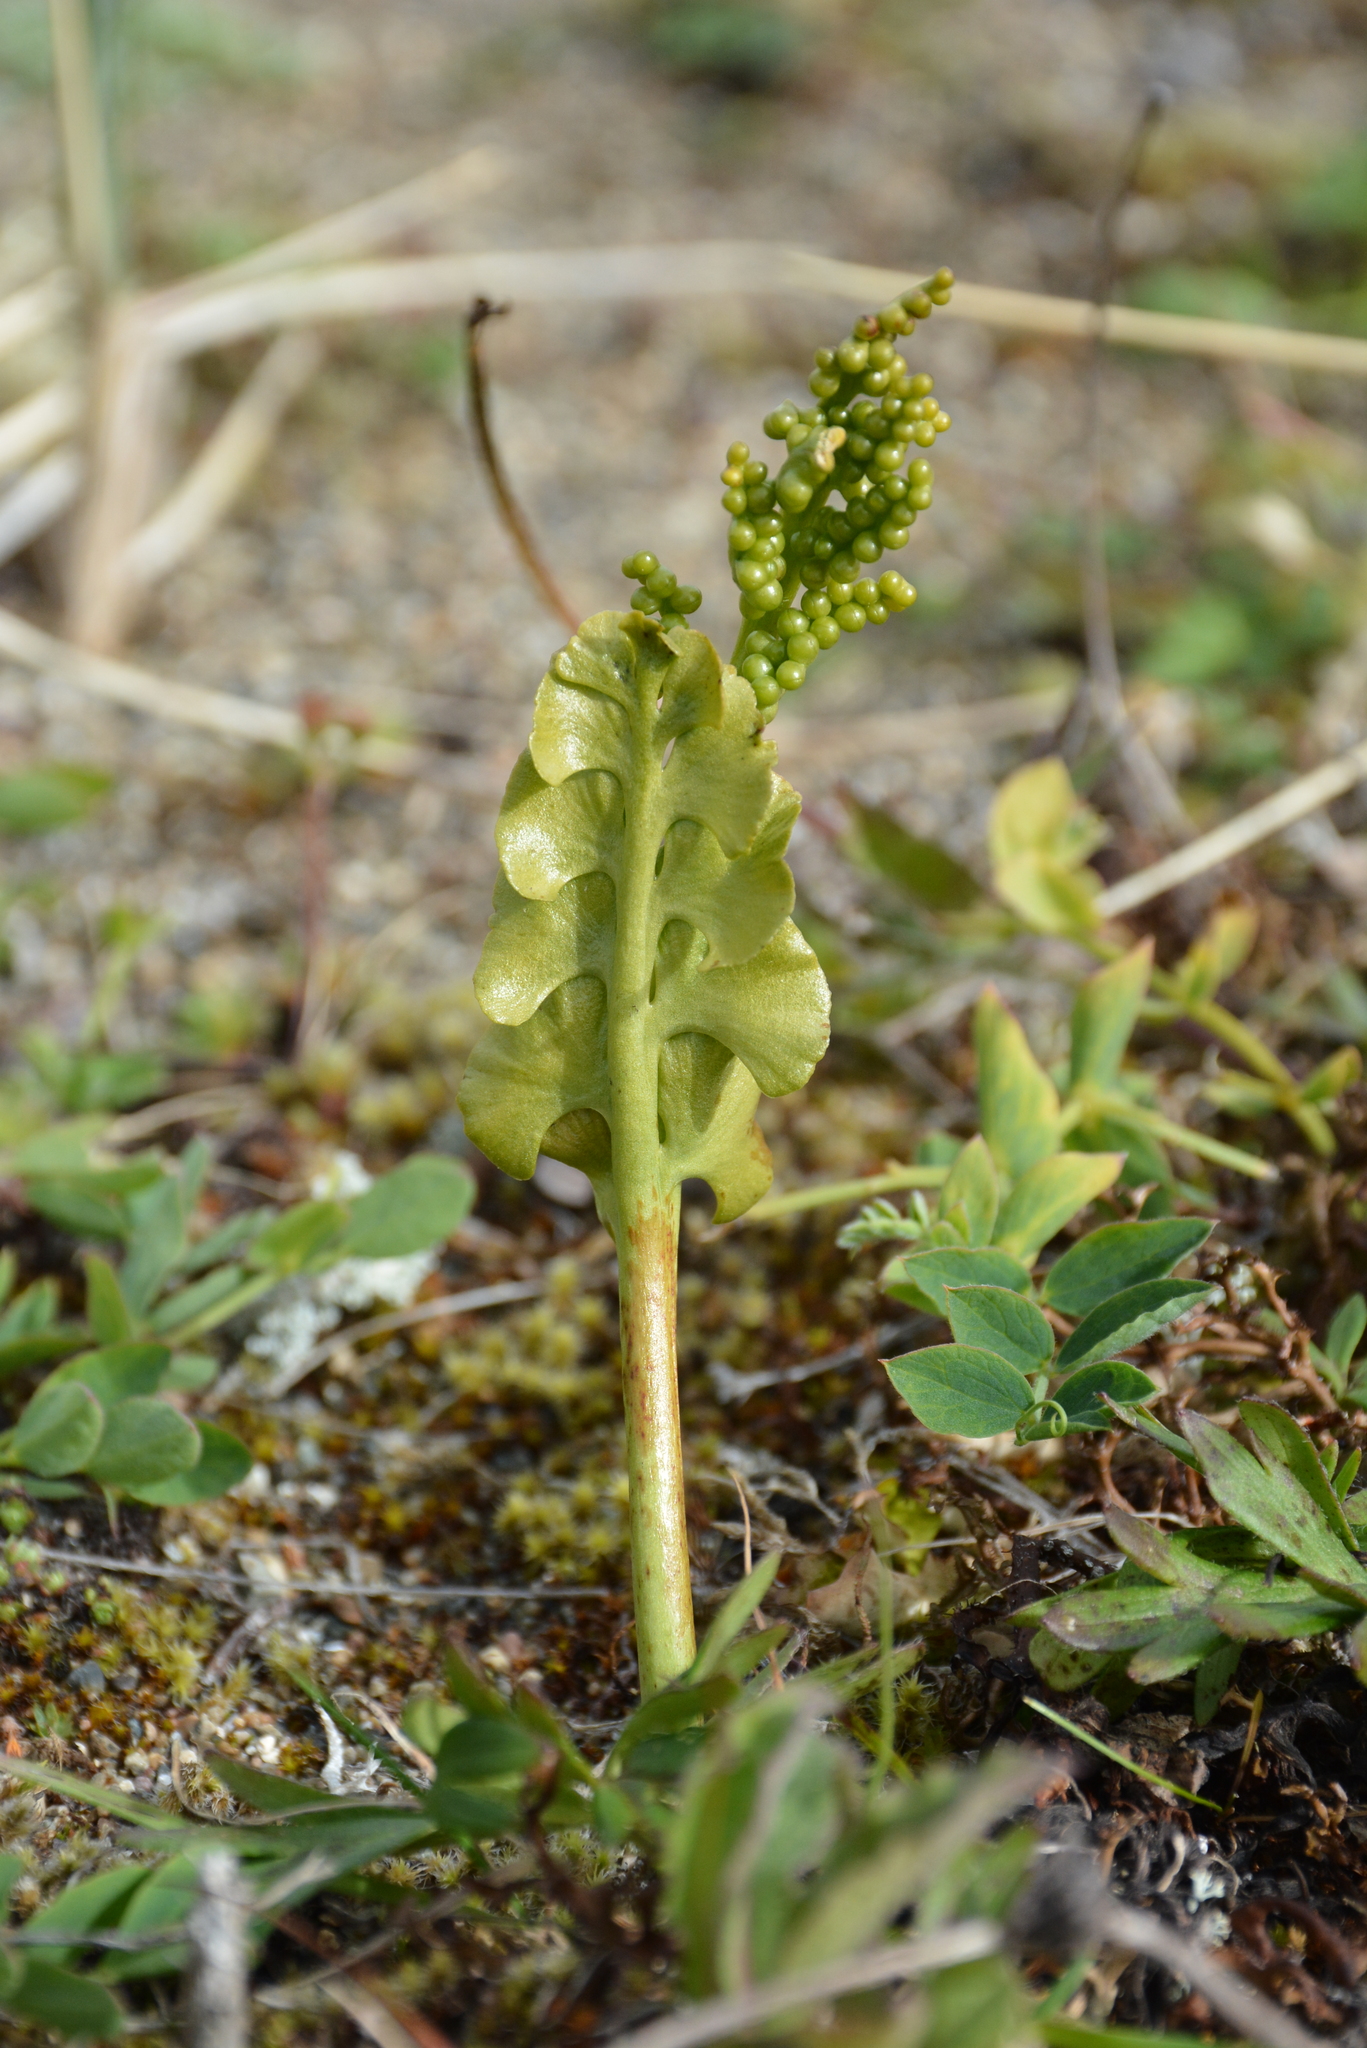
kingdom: Plantae
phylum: Tracheophyta
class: Polypodiopsida
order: Ophioglossales
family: Ophioglossaceae
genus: Botrychium
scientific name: Botrychium lunaria
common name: Moonwort
